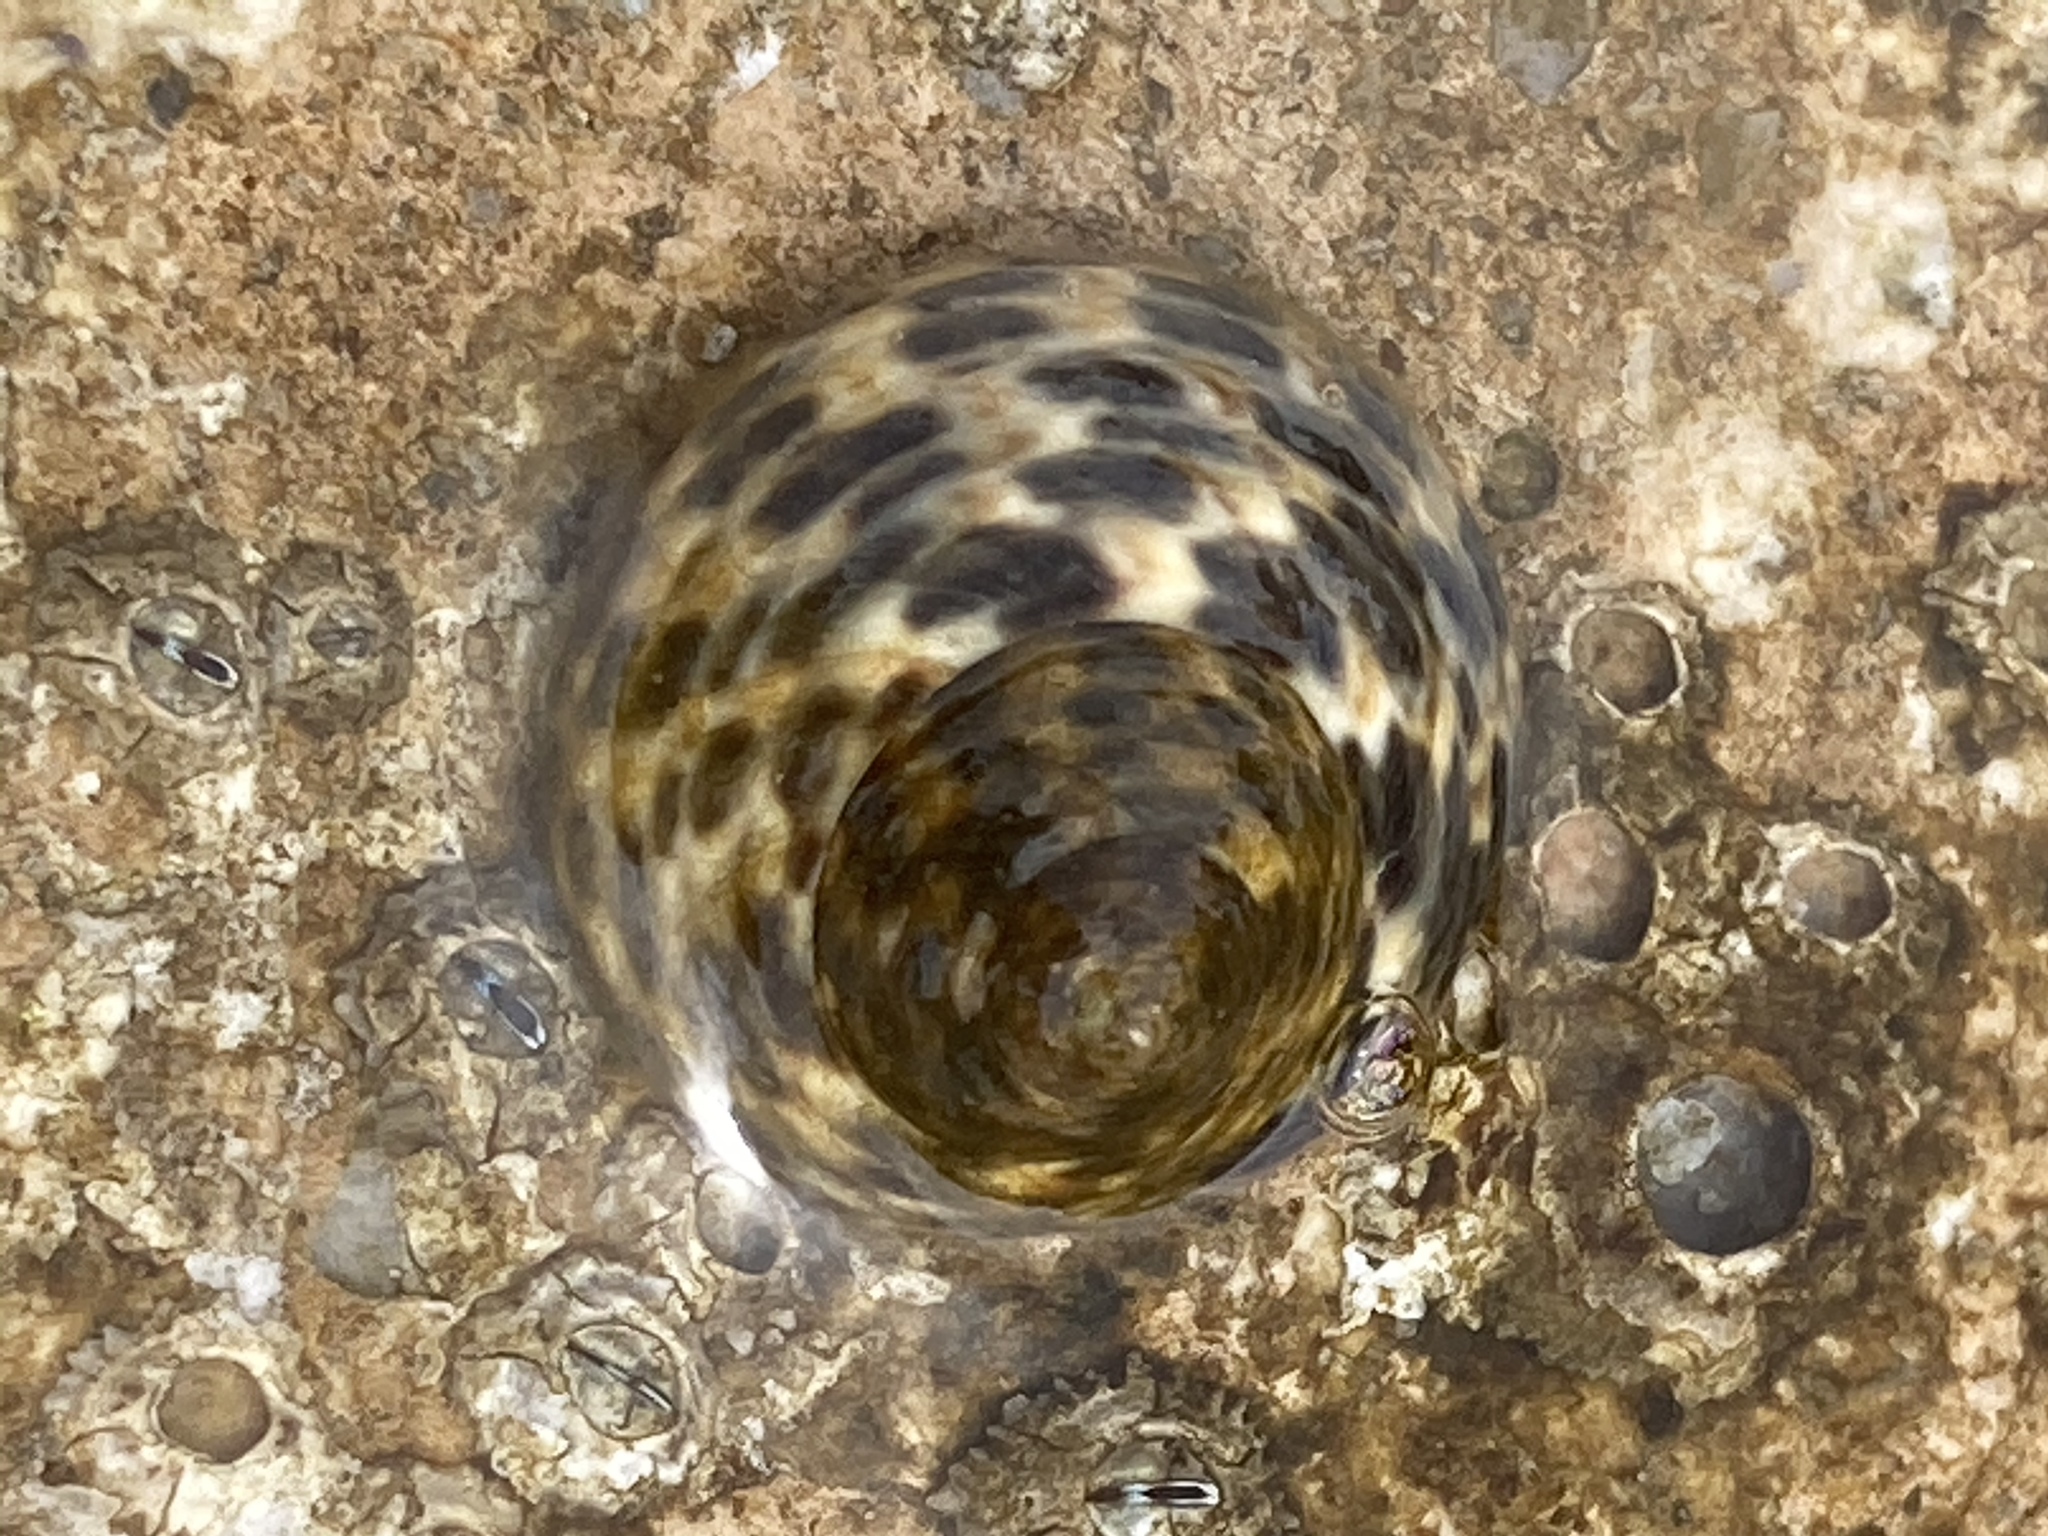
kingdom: Animalia
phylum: Mollusca
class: Gastropoda
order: Trochida
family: Trochidae
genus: Phorcus
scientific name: Phorcus turbinatus
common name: Turbinate monodont
